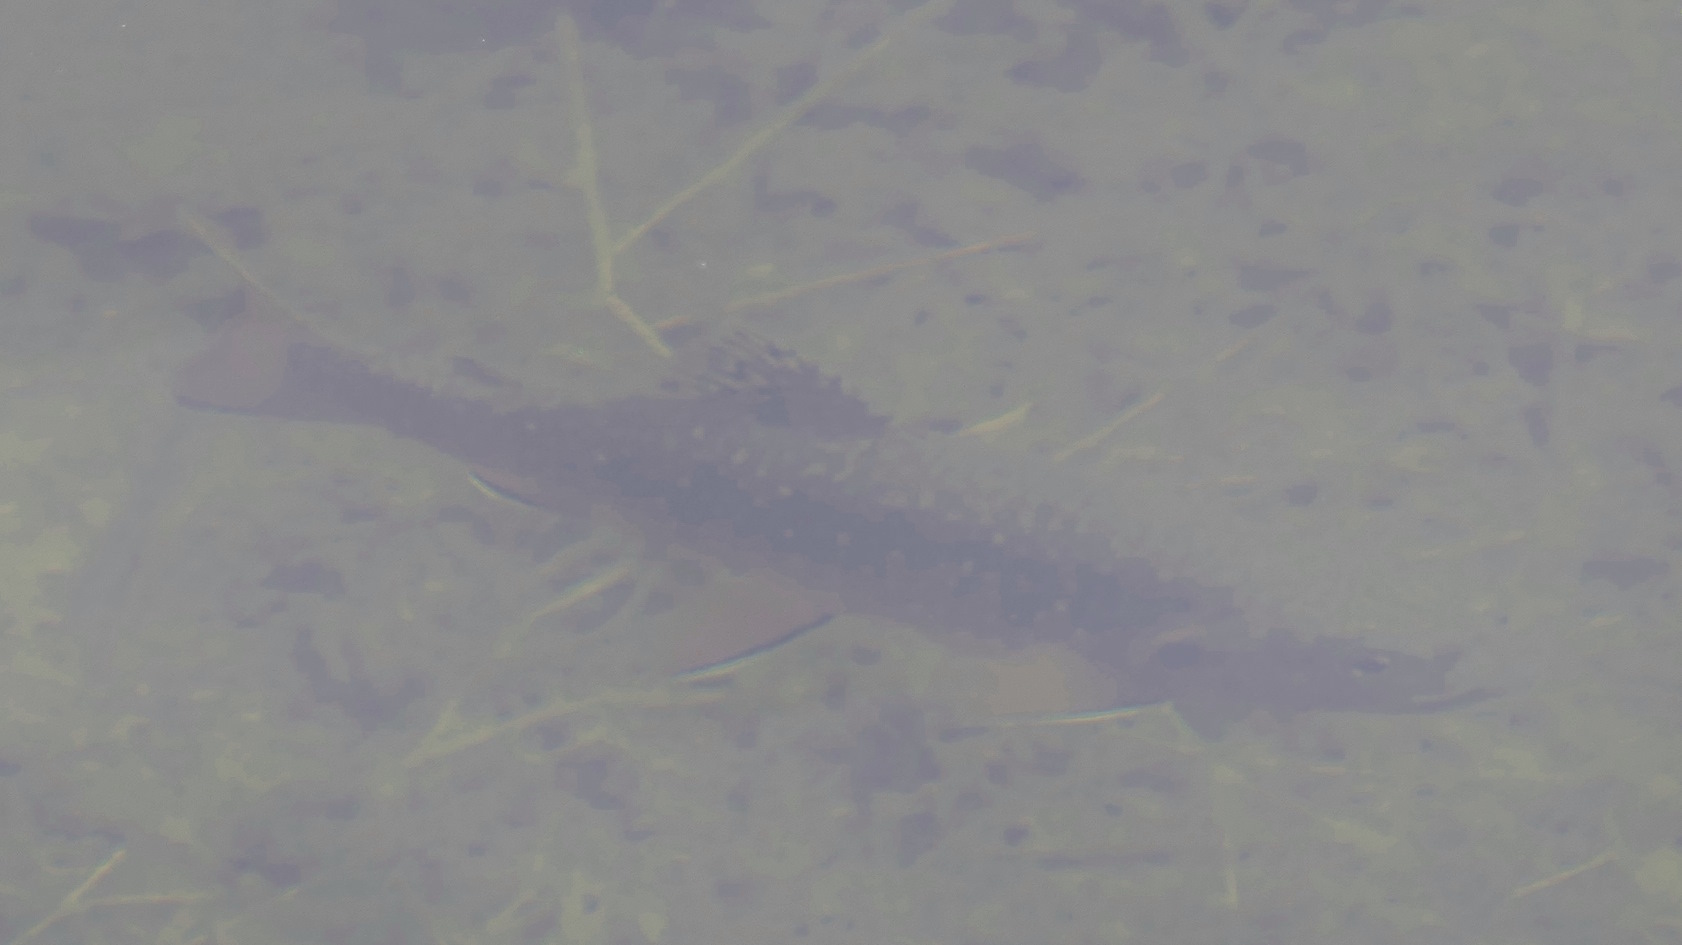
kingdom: Animalia
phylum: Chordata
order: Salmoniformes
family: Salmonidae
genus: Salvelinus
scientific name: Salvelinus fontinalis
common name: Brook trout
